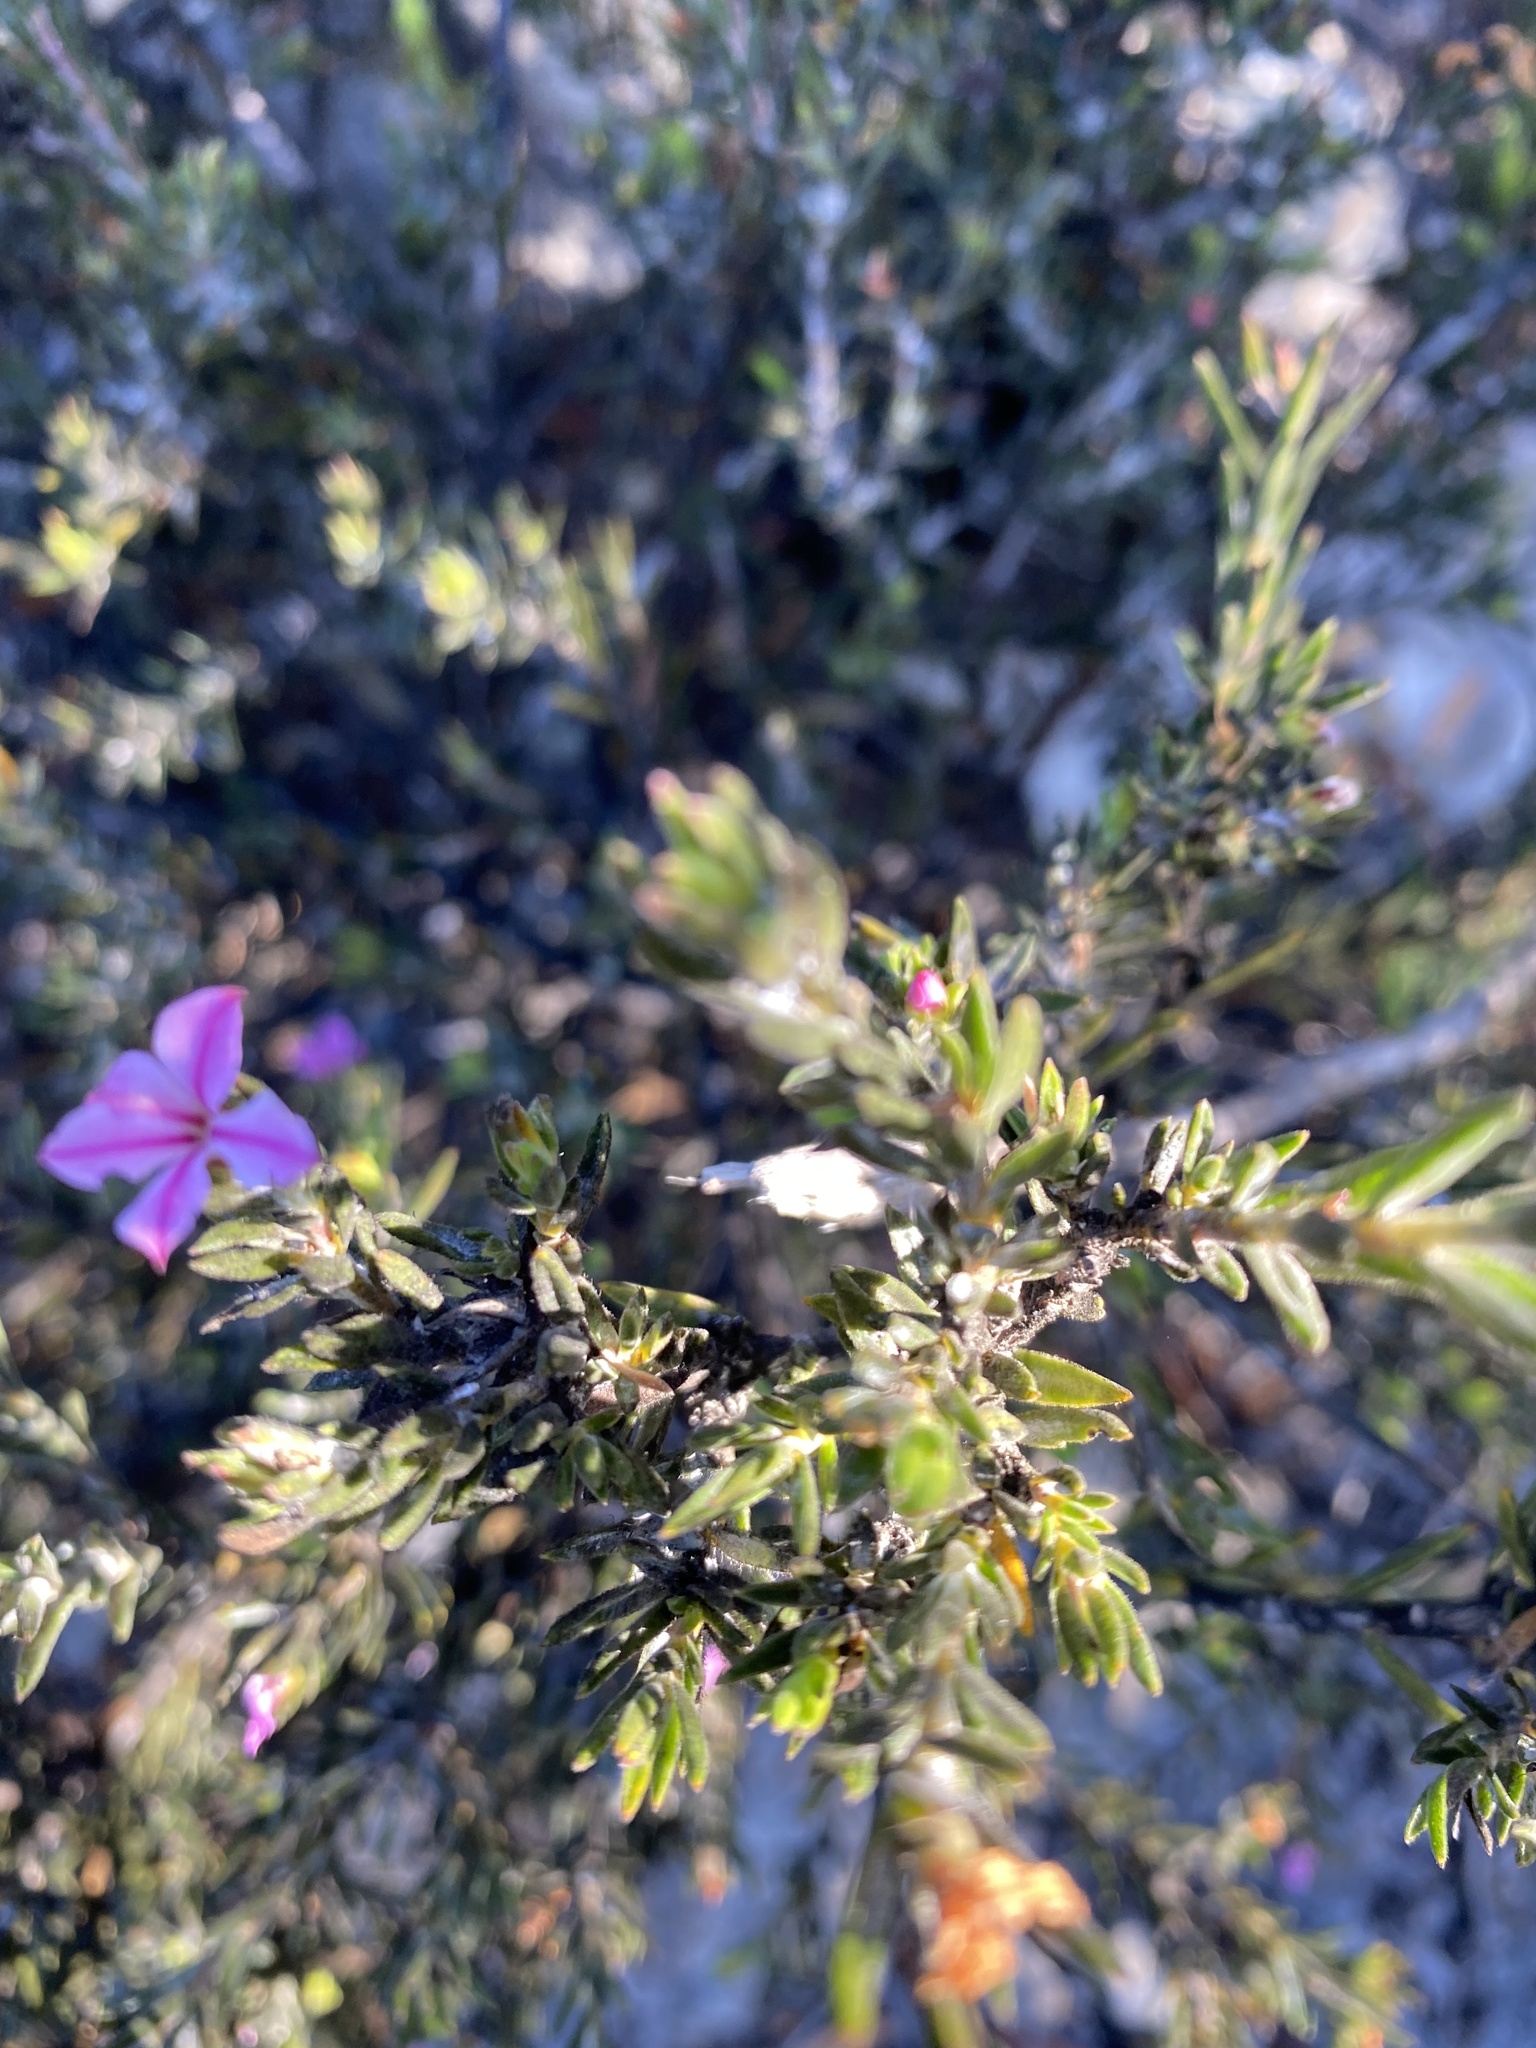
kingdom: Plantae
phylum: Tracheophyta
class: Magnoliopsida
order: Sapindales
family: Rutaceae
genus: Acmadenia
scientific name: Acmadenia obtusata
